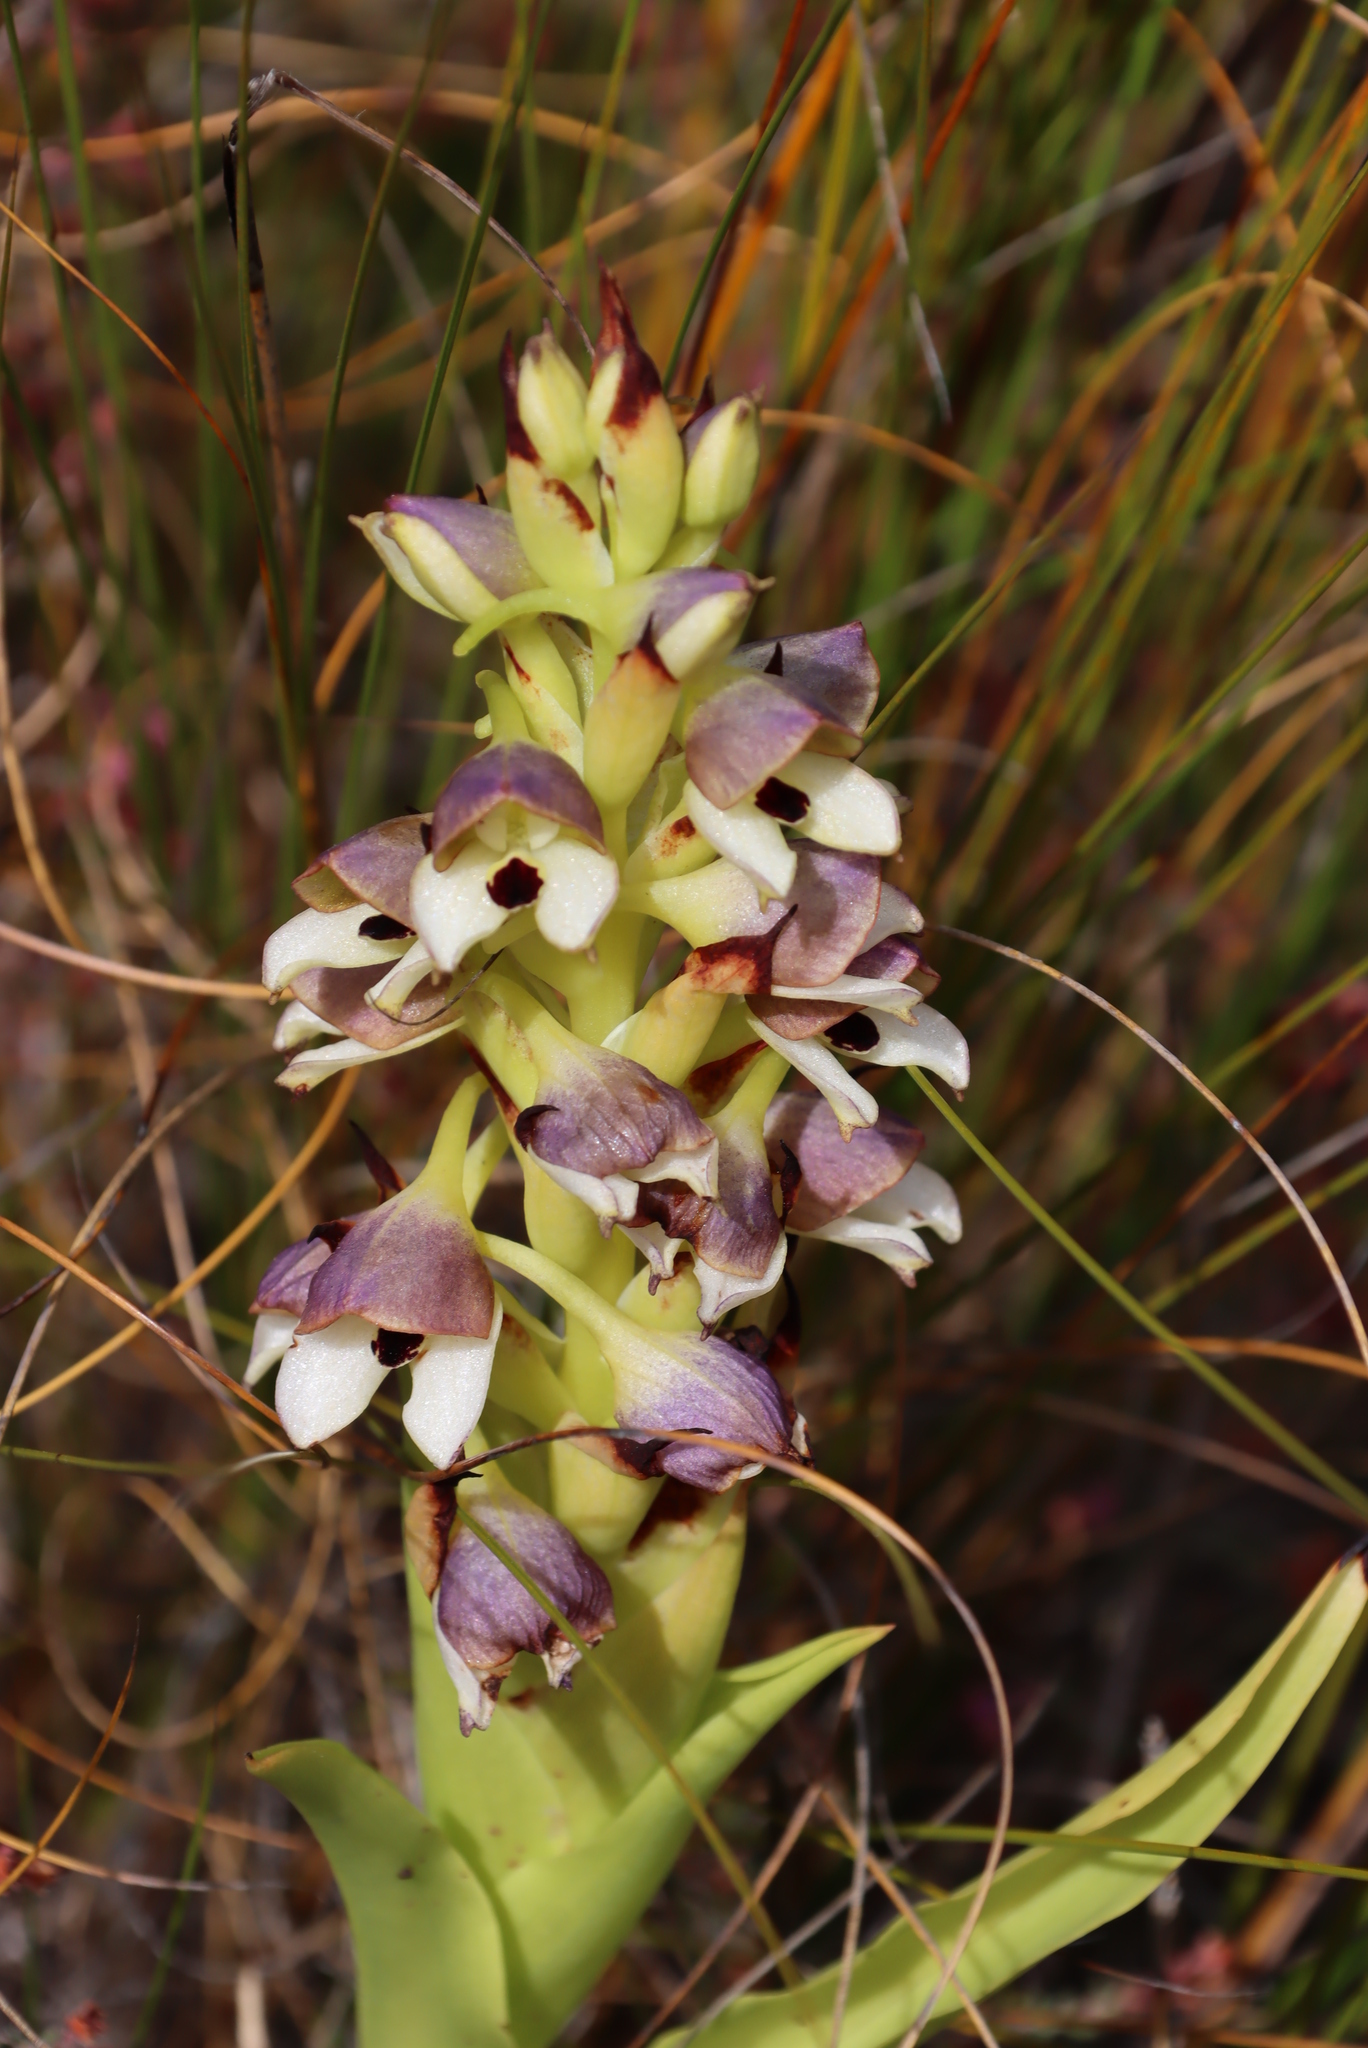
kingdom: Plantae
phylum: Tracheophyta
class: Liliopsida
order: Asparagales
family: Orchidaceae
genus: Disa
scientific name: Disa cornuta
